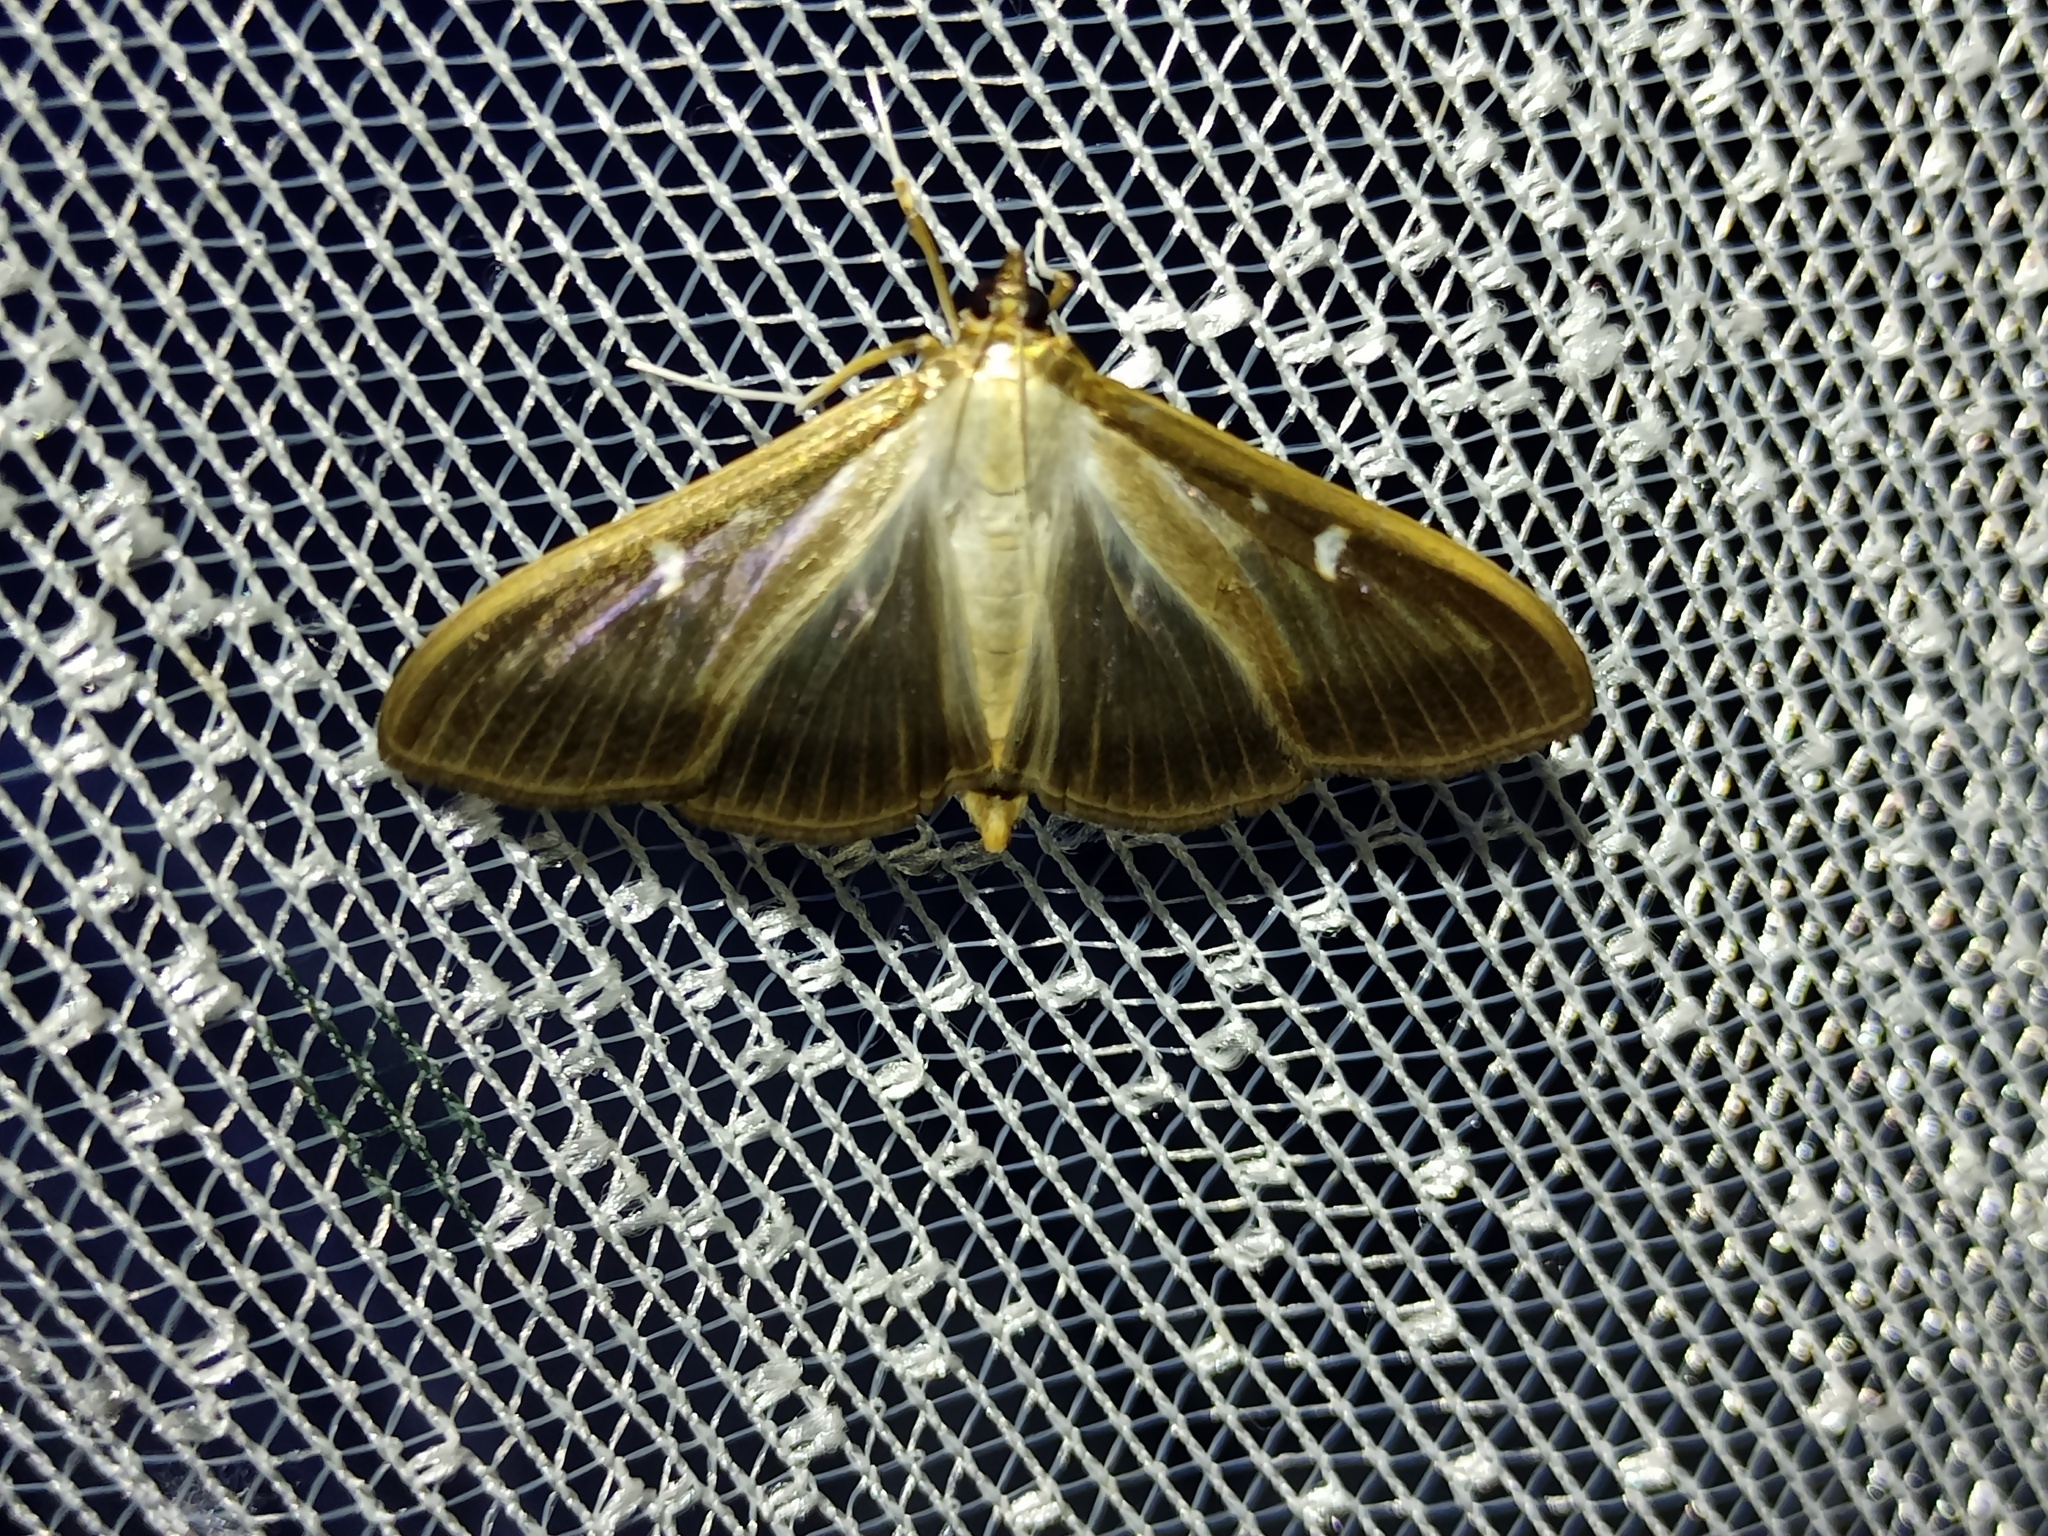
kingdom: Animalia
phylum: Arthropoda
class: Insecta
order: Lepidoptera
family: Crambidae
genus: Cydalima
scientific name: Cydalima perspectalis
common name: Box tree moth
